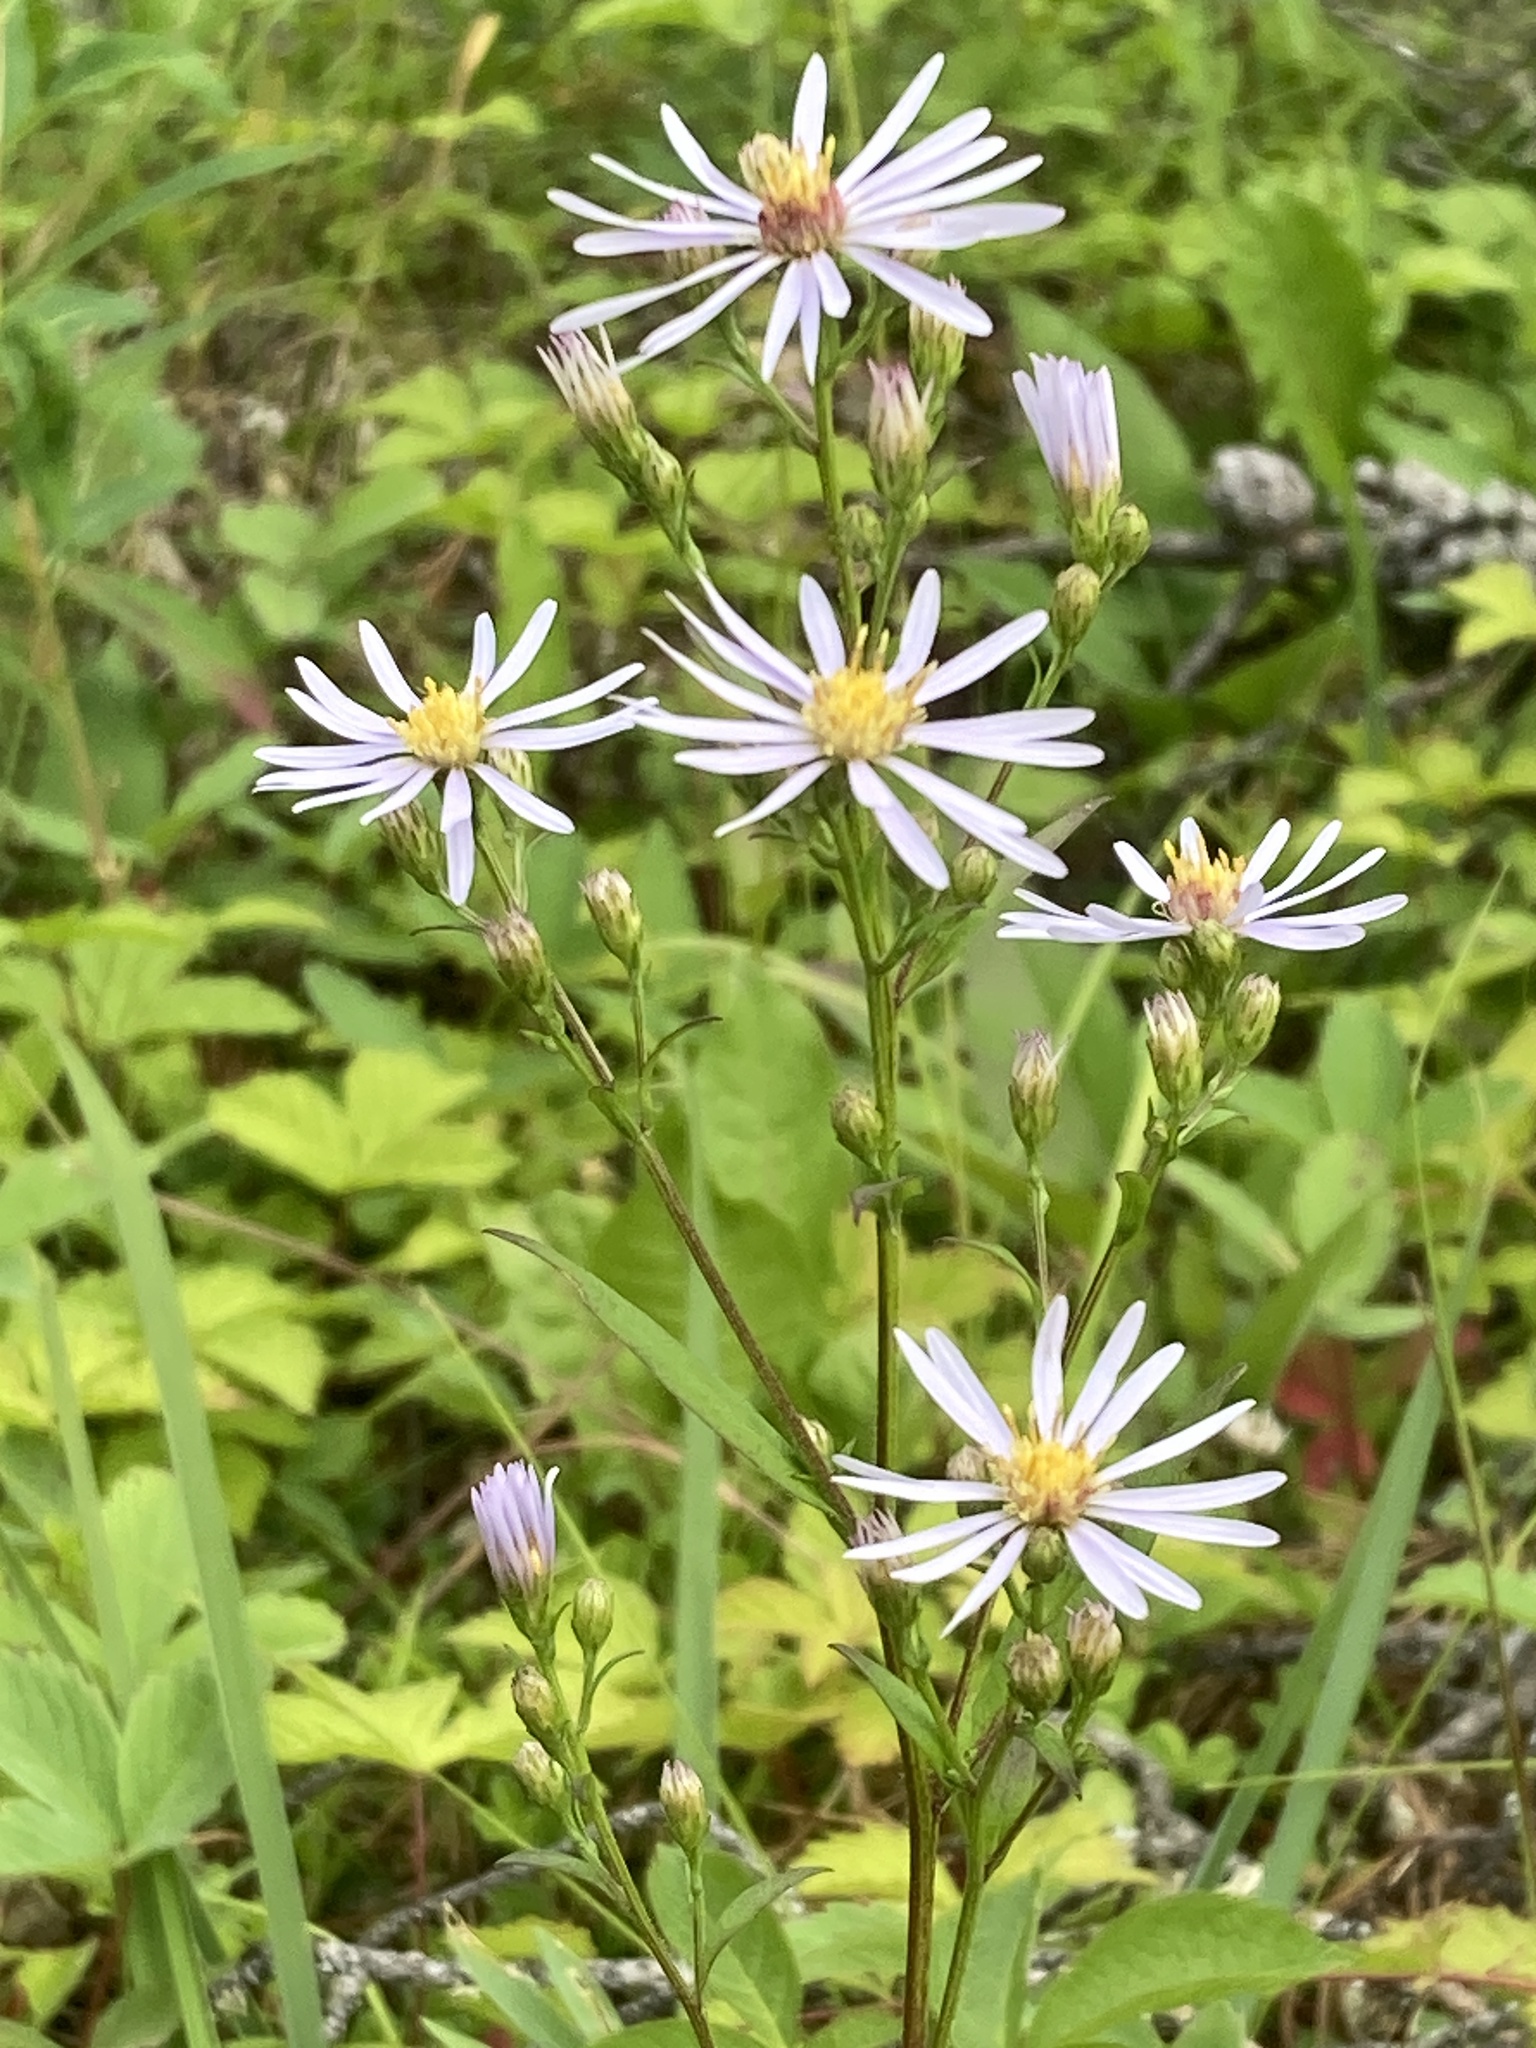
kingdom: Plantae
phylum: Tracheophyta
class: Magnoliopsida
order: Asterales
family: Asteraceae
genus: Symphyotrichum
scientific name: Symphyotrichum ciliolatum
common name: Fringed blue aster
